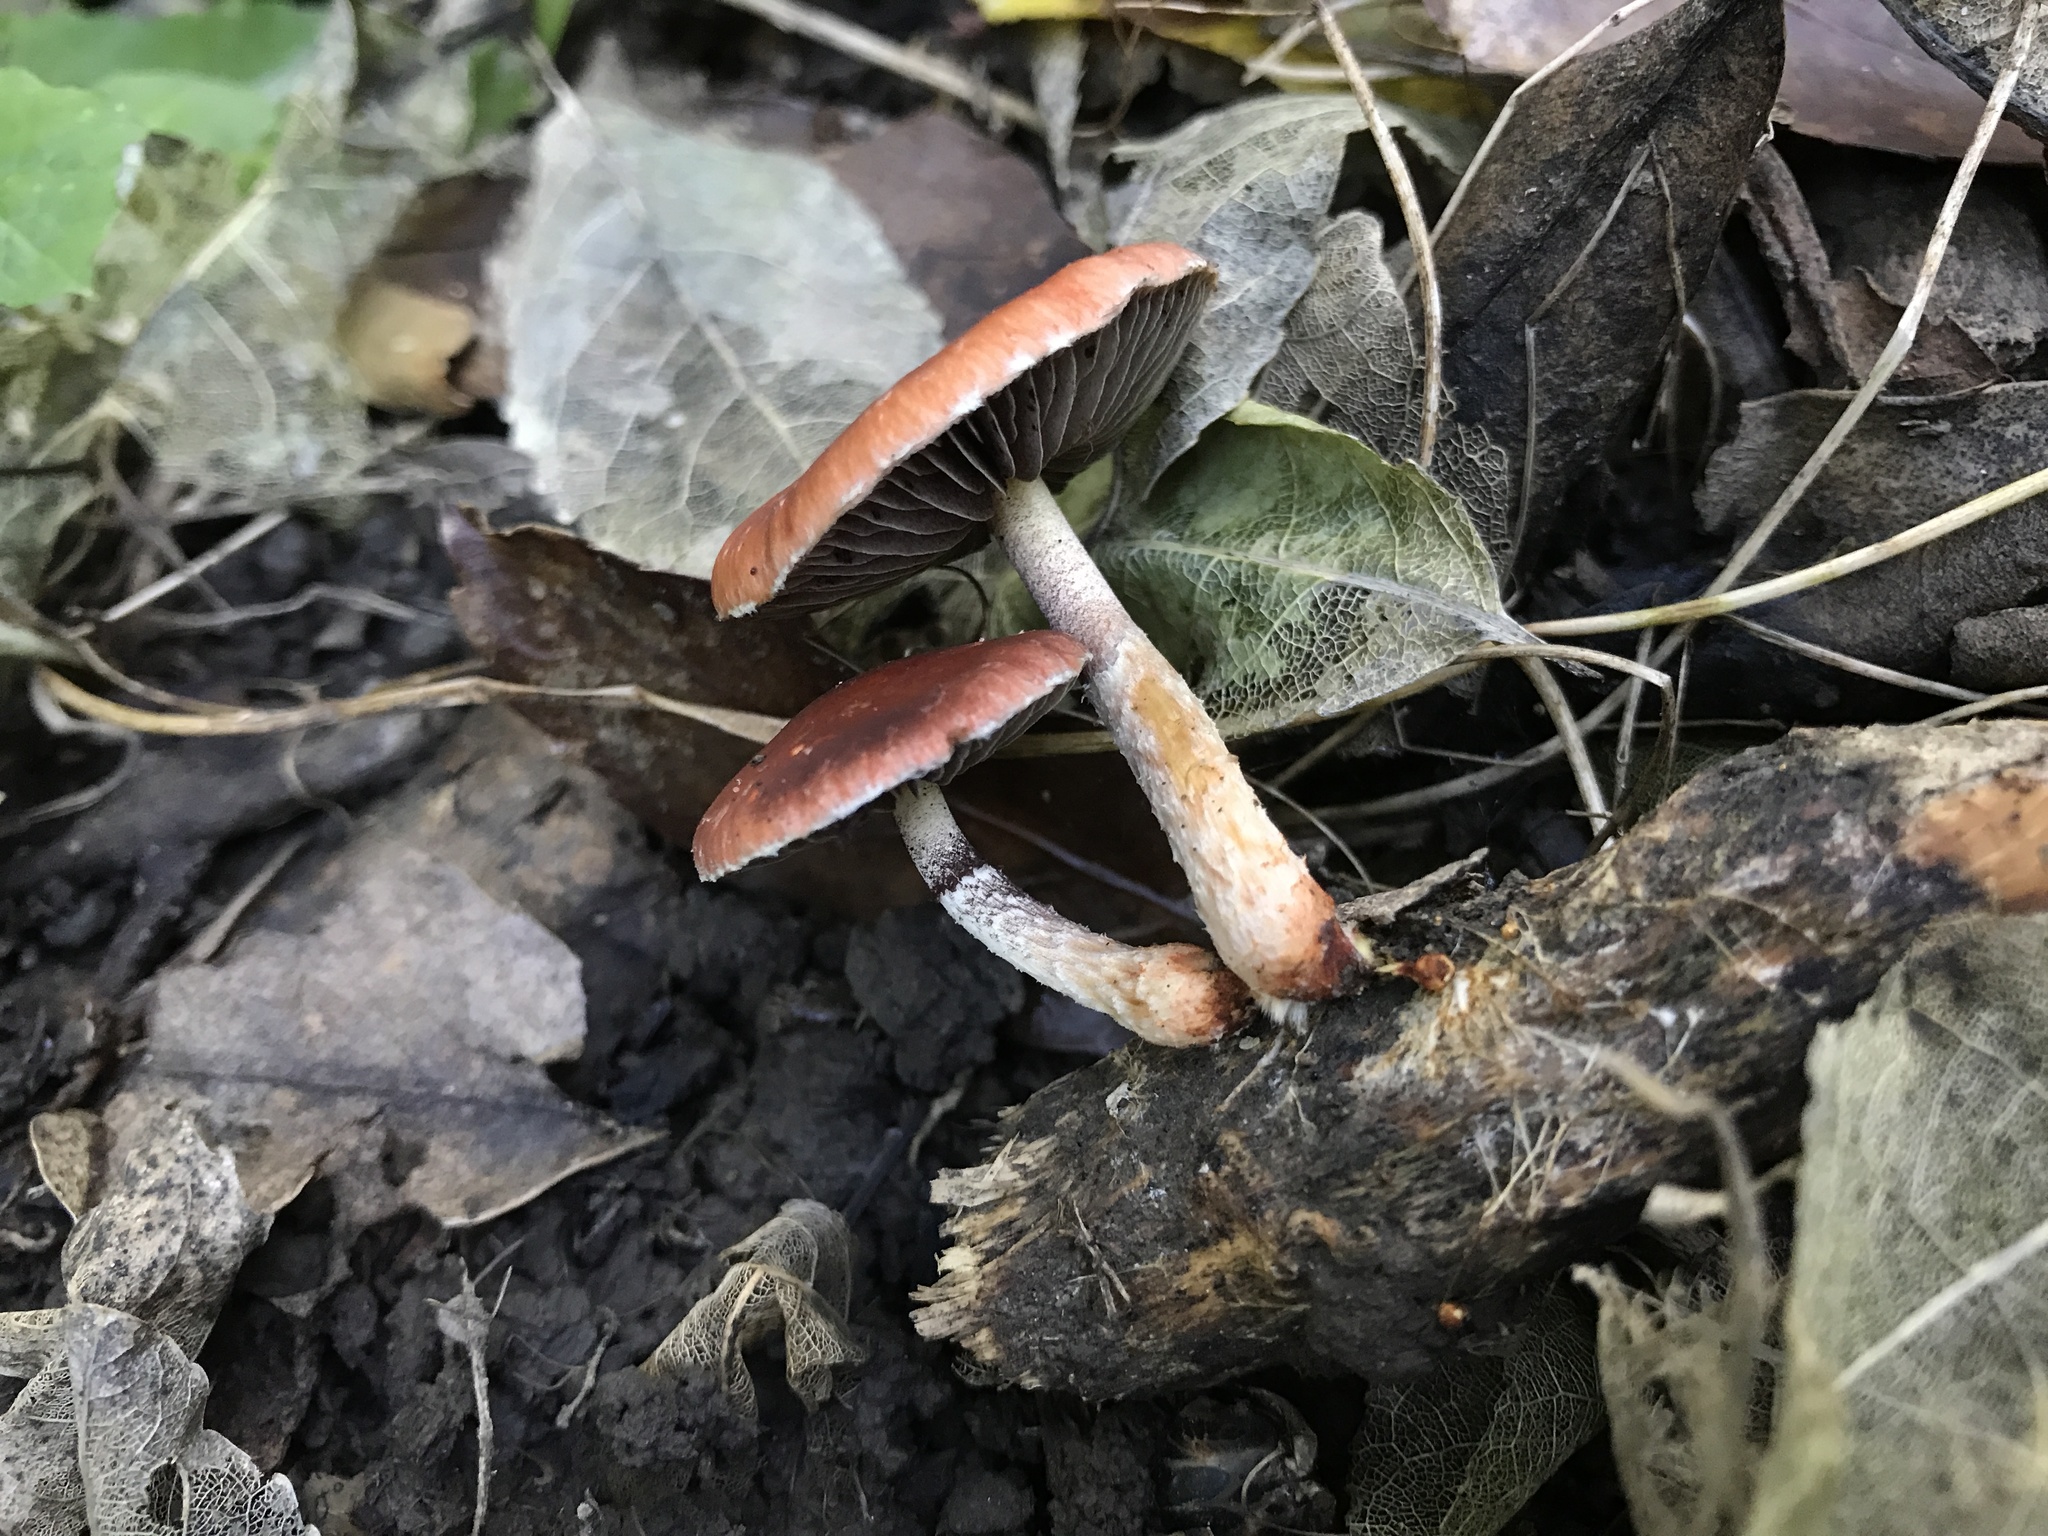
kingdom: Fungi
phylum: Basidiomycota
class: Agaricomycetes
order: Agaricales
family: Strophariaceae
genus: Leratiomyces
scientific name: Leratiomyces ceres
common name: Redlead roundhead
